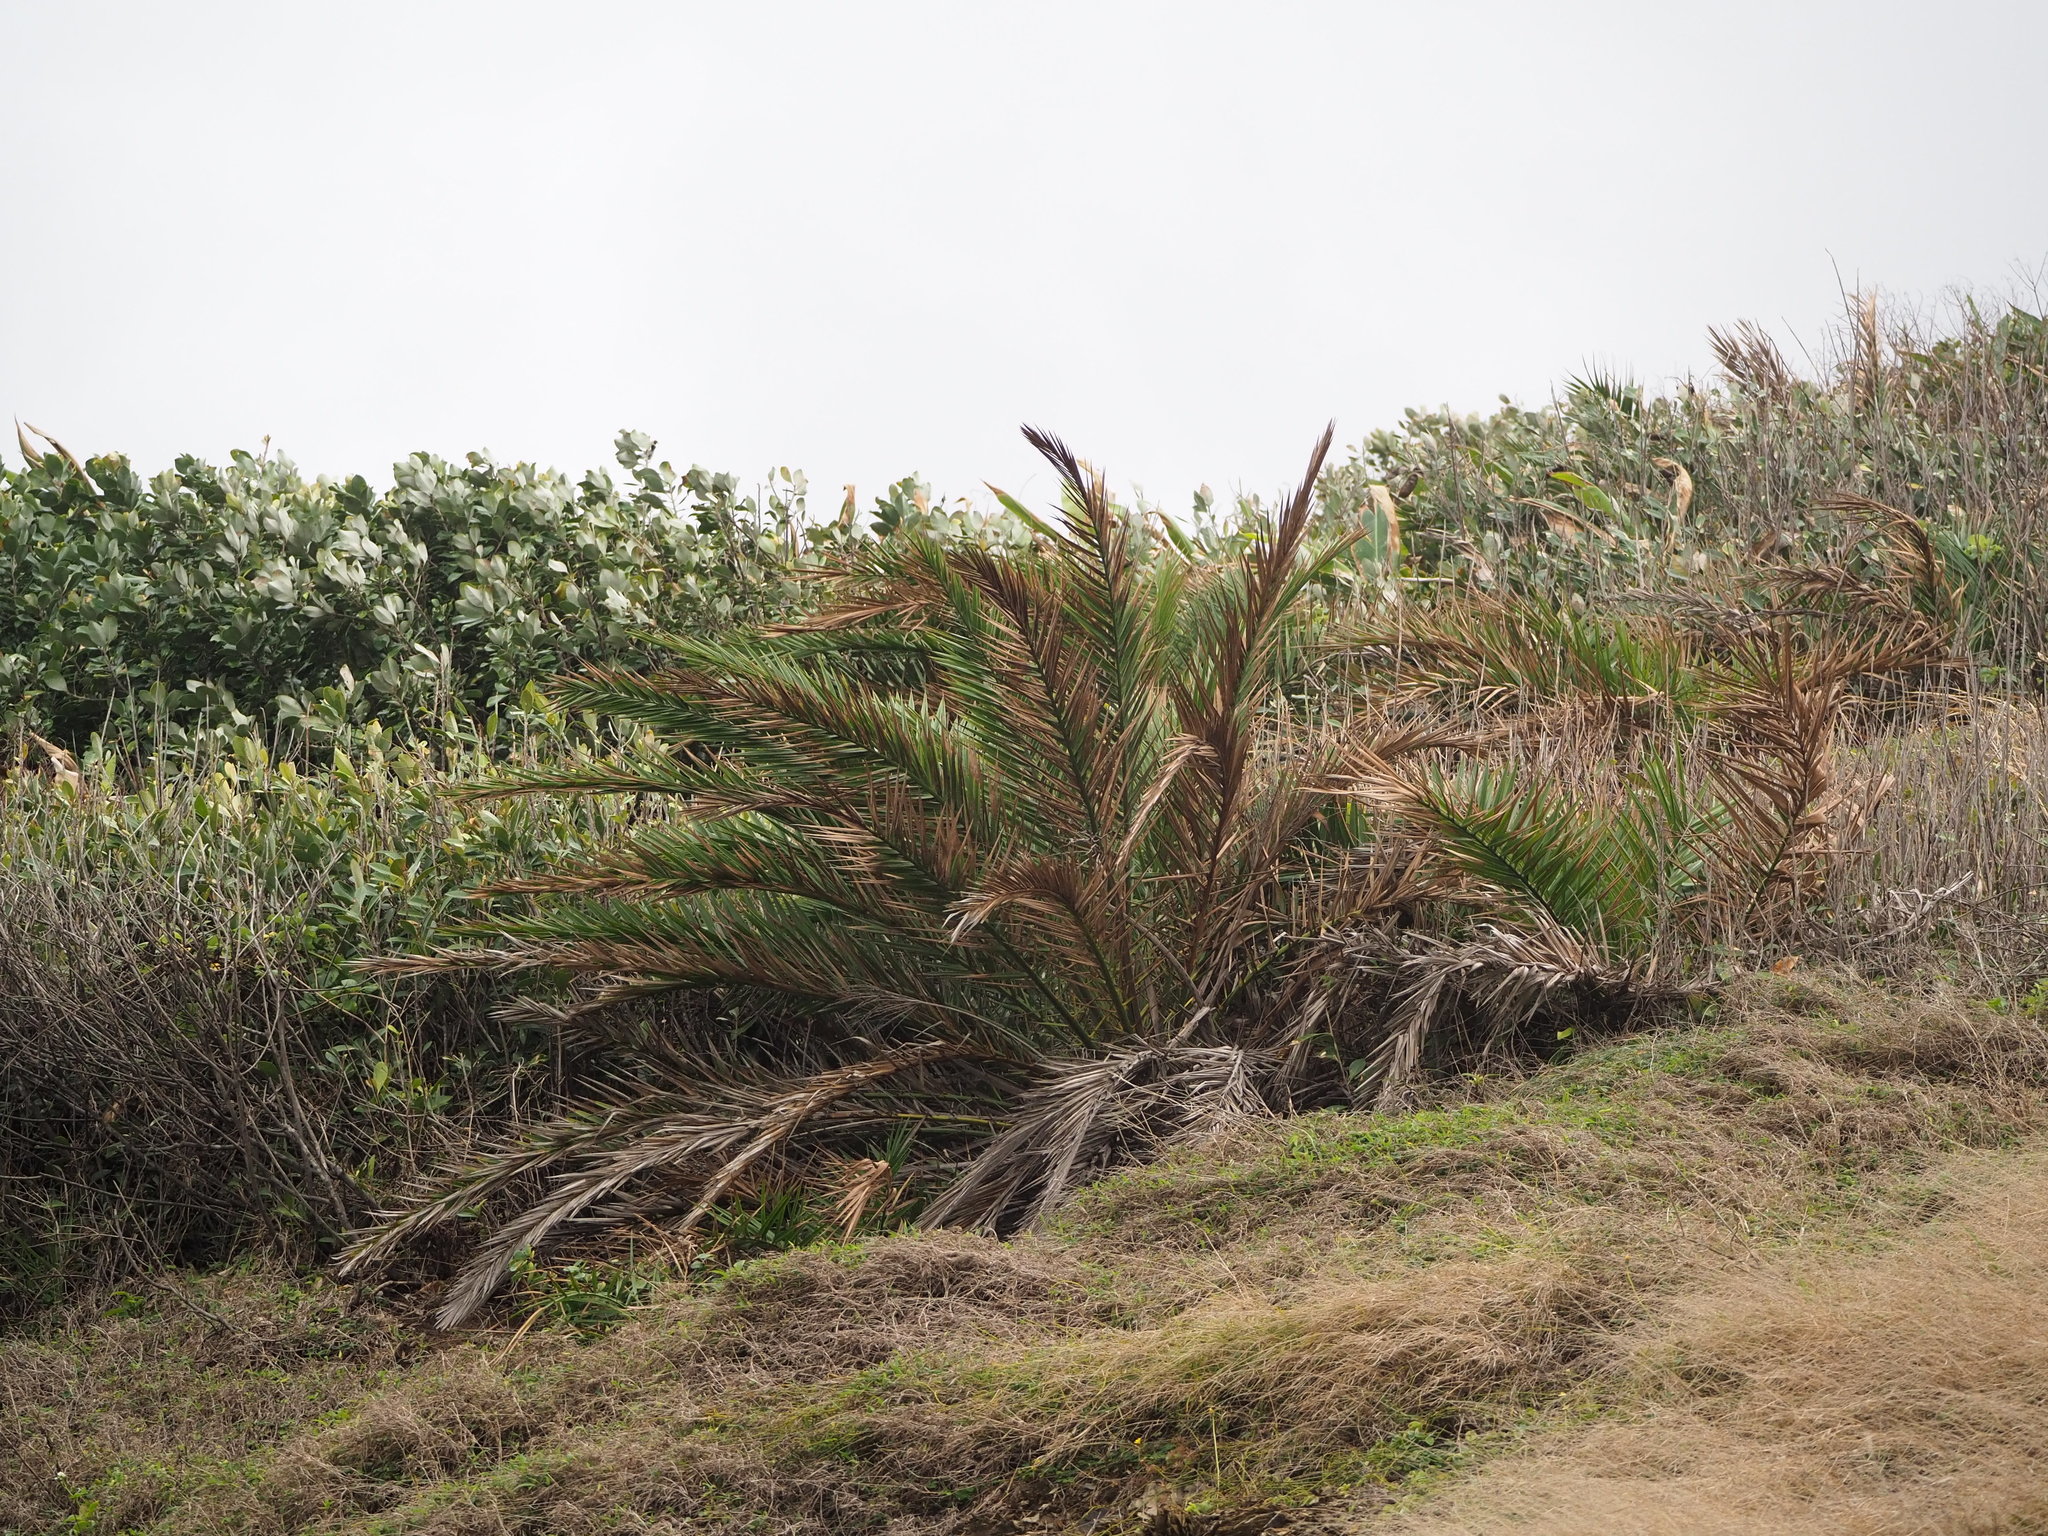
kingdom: Plantae
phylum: Tracheophyta
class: Liliopsida
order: Arecales
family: Arecaceae
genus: Phoenix
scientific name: Phoenix loureiroi
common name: Loureiro's palm
